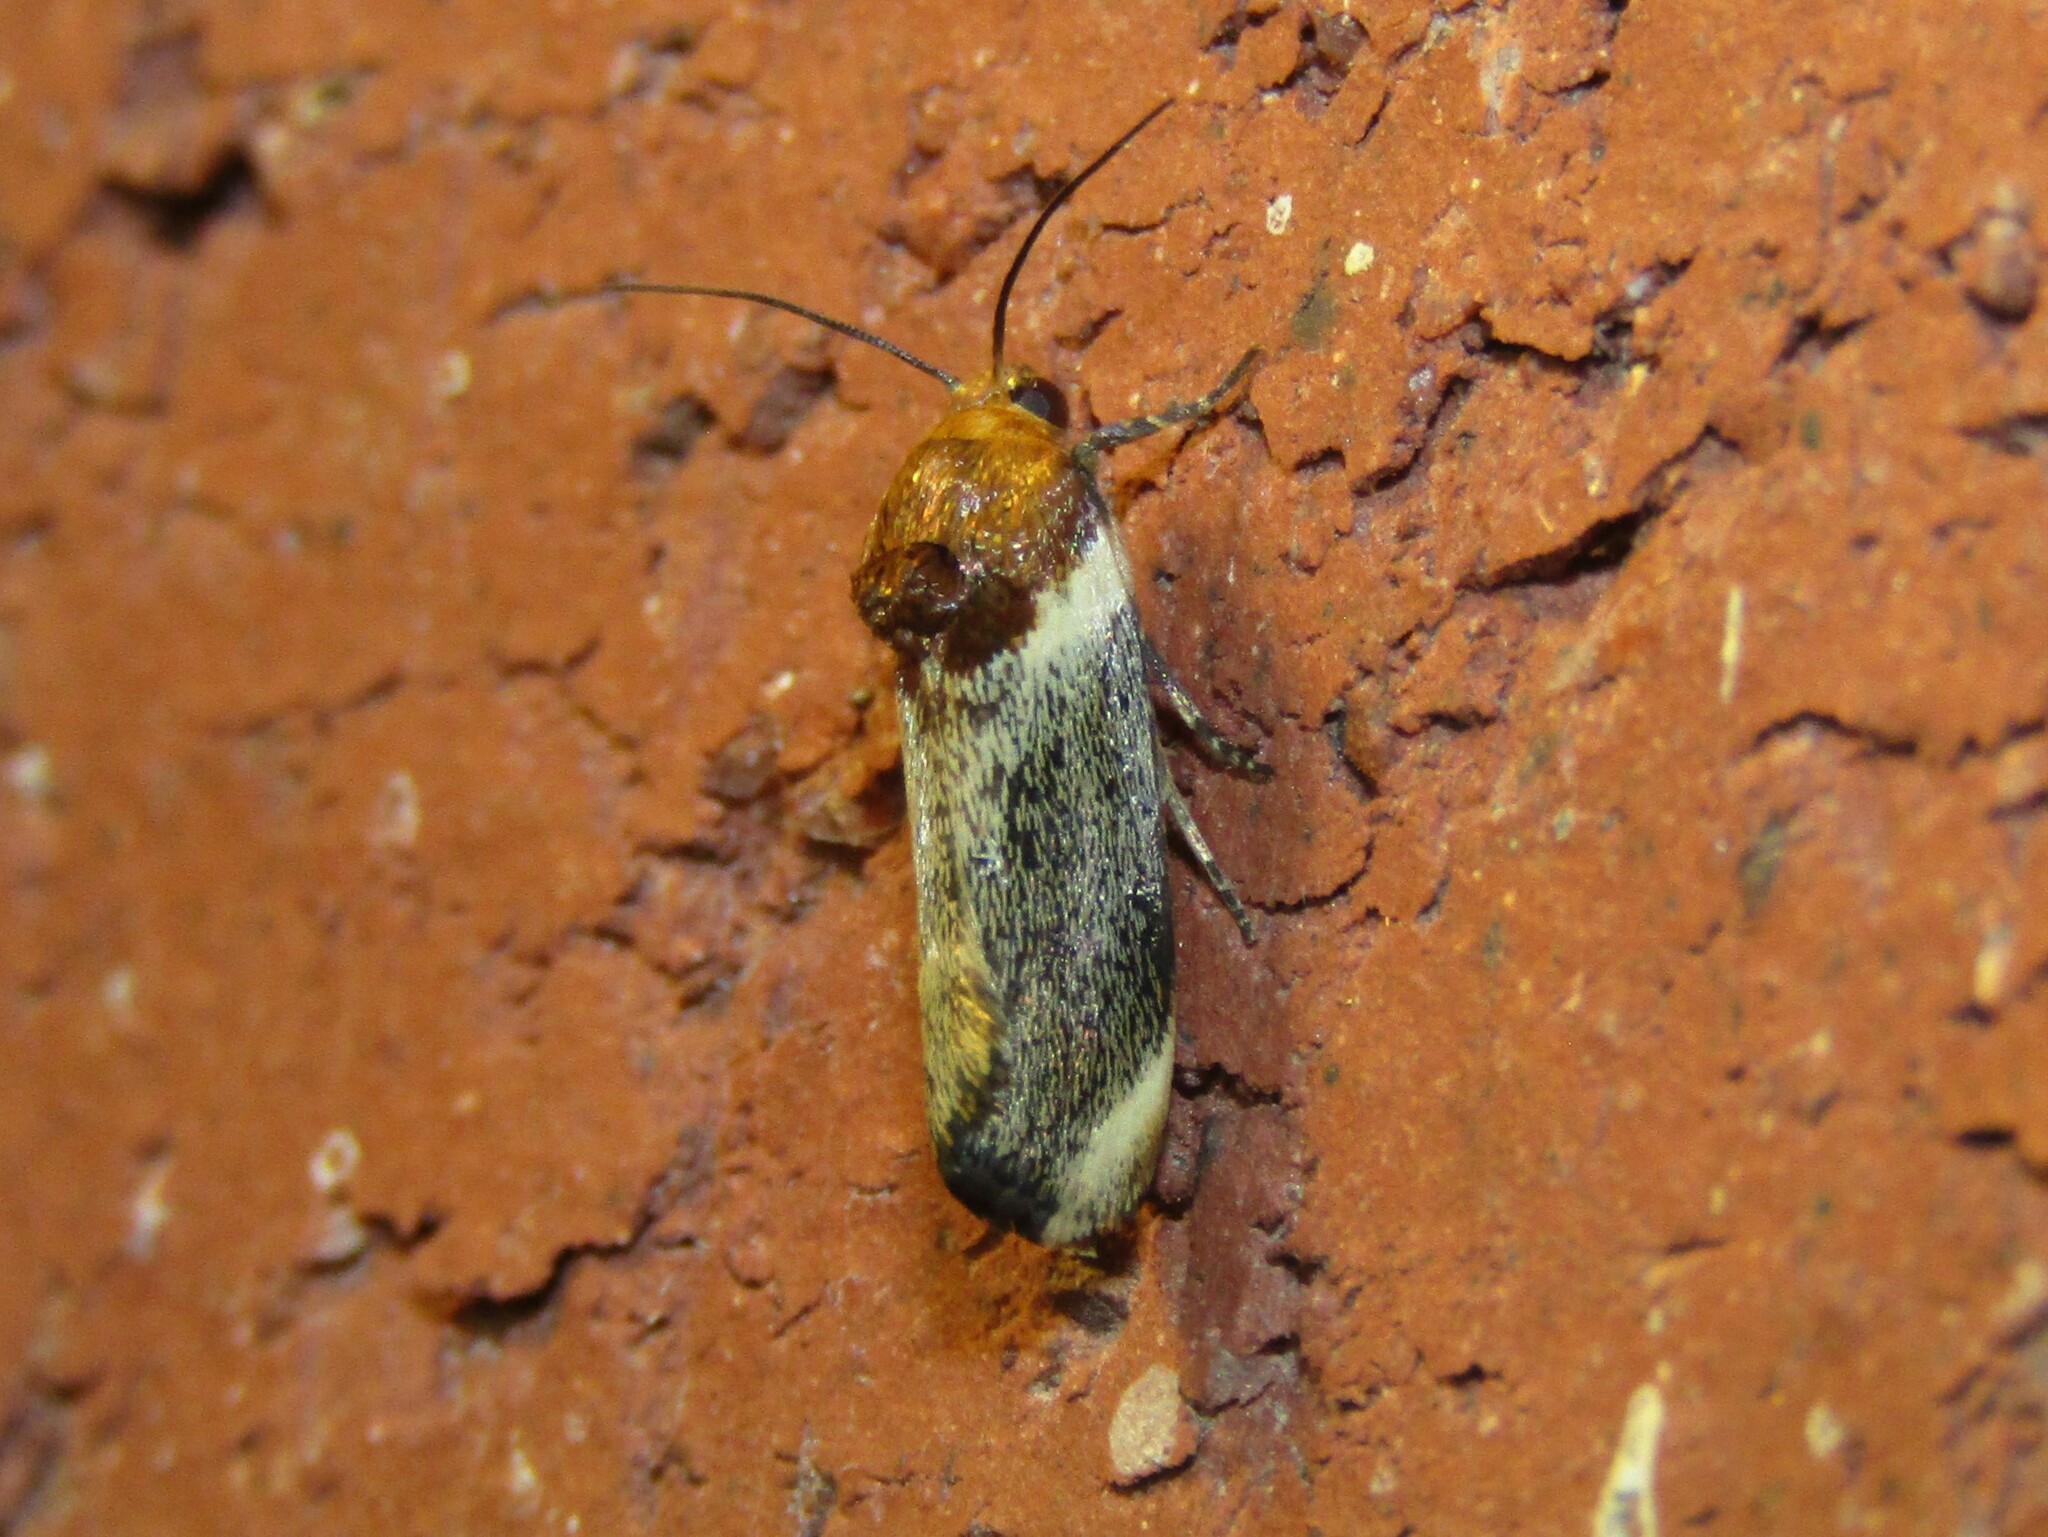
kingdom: Animalia
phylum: Arthropoda
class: Insecta
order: Lepidoptera
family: Noctuidae
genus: Spragueia
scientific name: Spragueia apicalis
